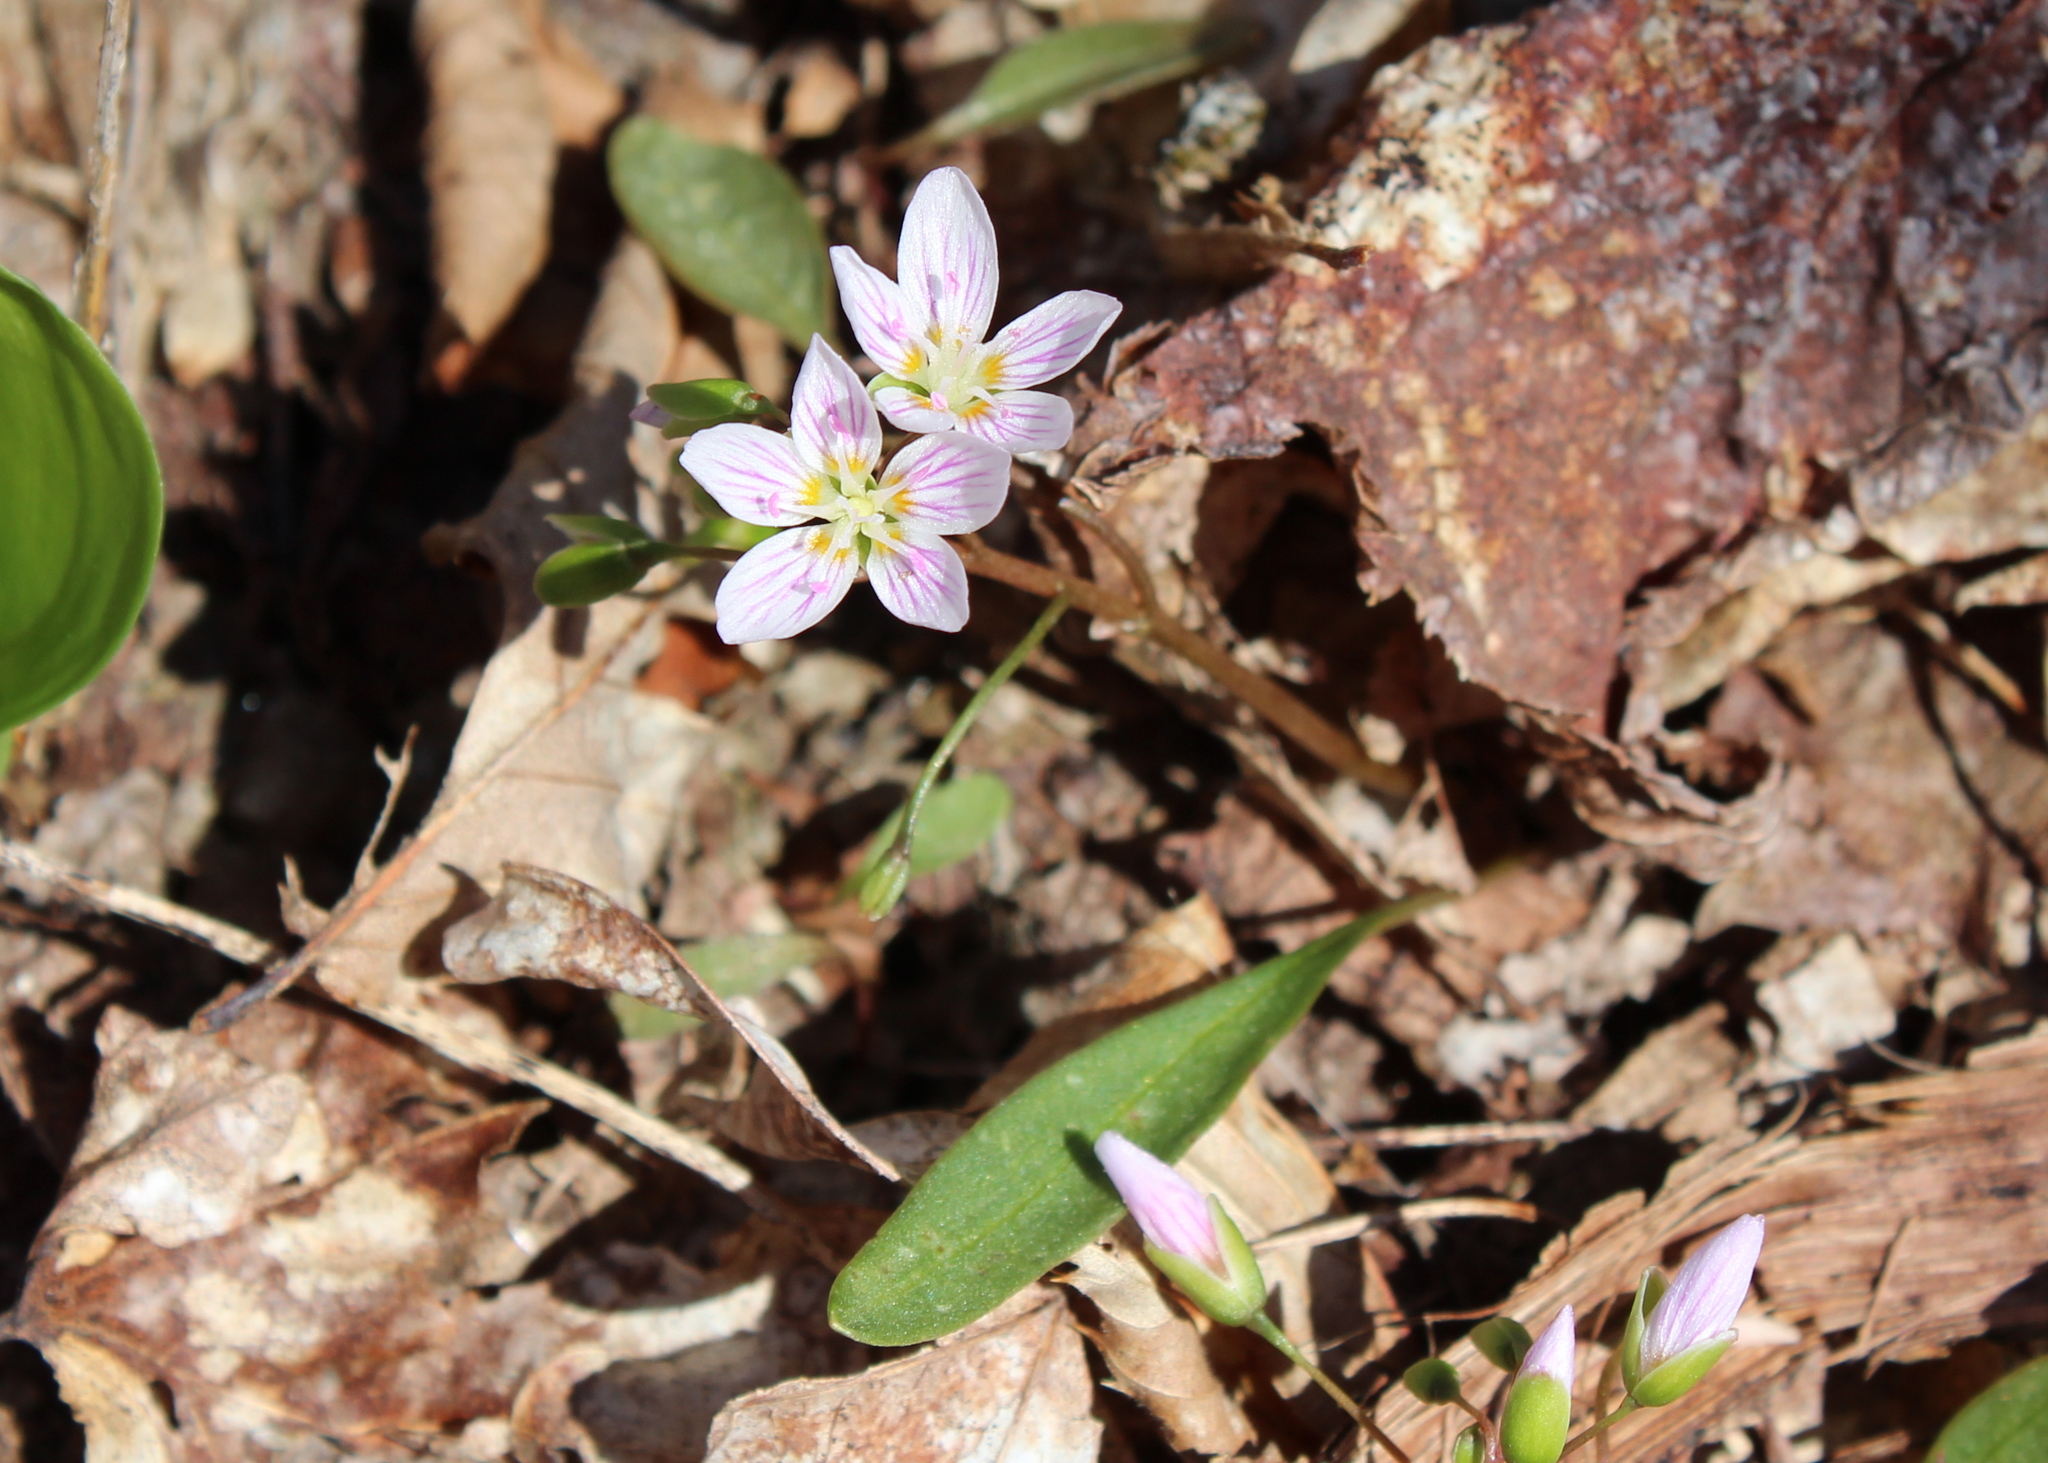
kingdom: Plantae
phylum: Tracheophyta
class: Magnoliopsida
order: Caryophyllales
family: Montiaceae
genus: Claytonia
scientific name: Claytonia caroliniana
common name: Carolina spring beauty
